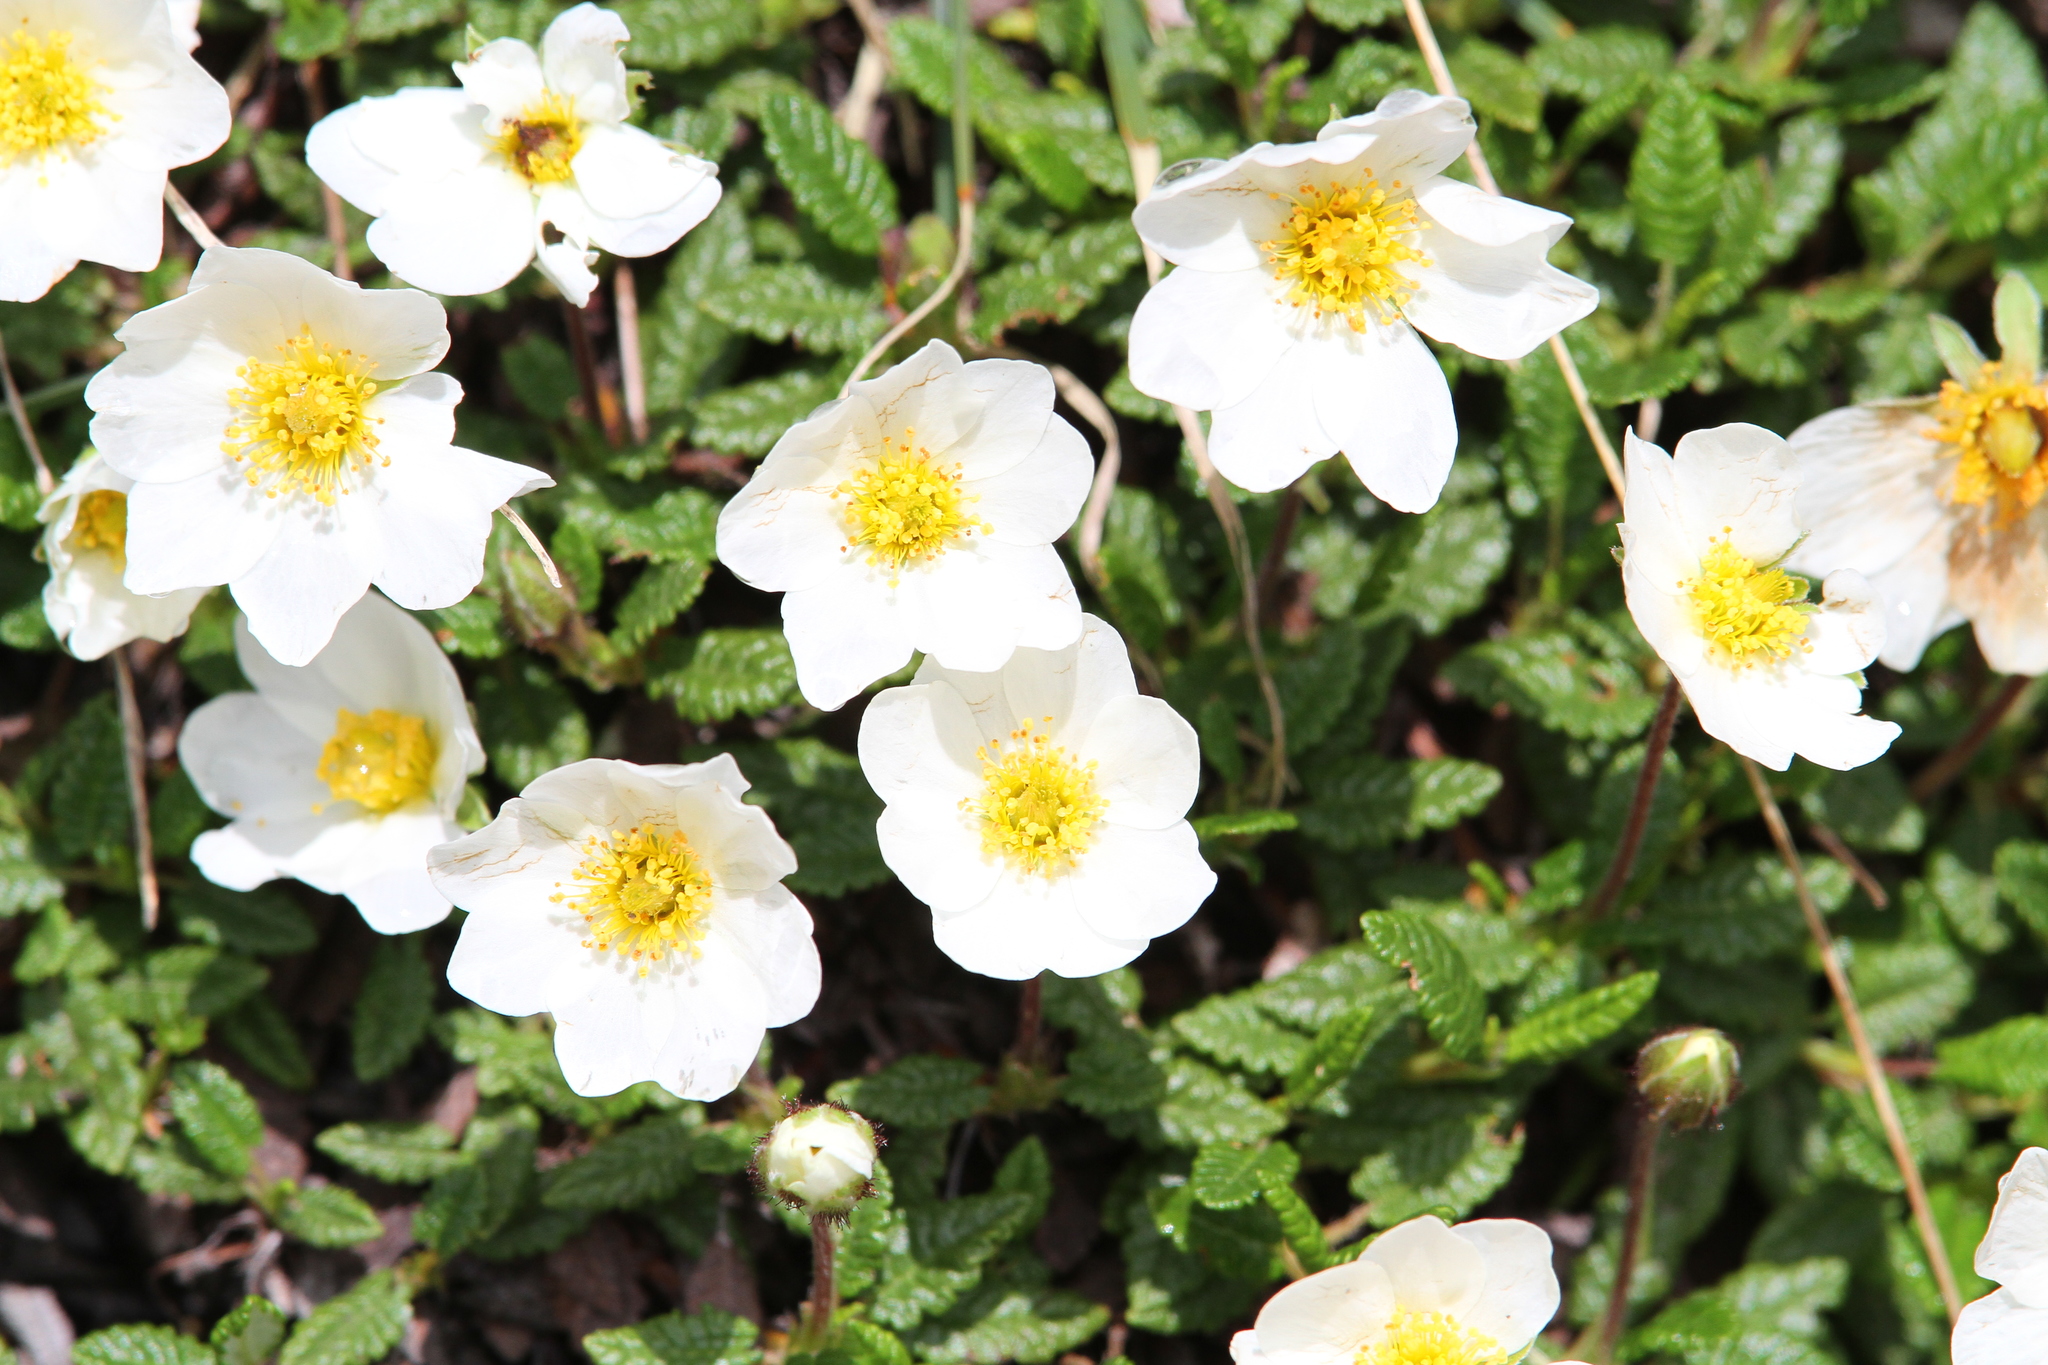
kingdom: Plantae
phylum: Tracheophyta
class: Magnoliopsida
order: Rosales
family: Rosaceae
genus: Dryas
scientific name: Dryas octopetala
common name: Eight-petal mountain-avens
